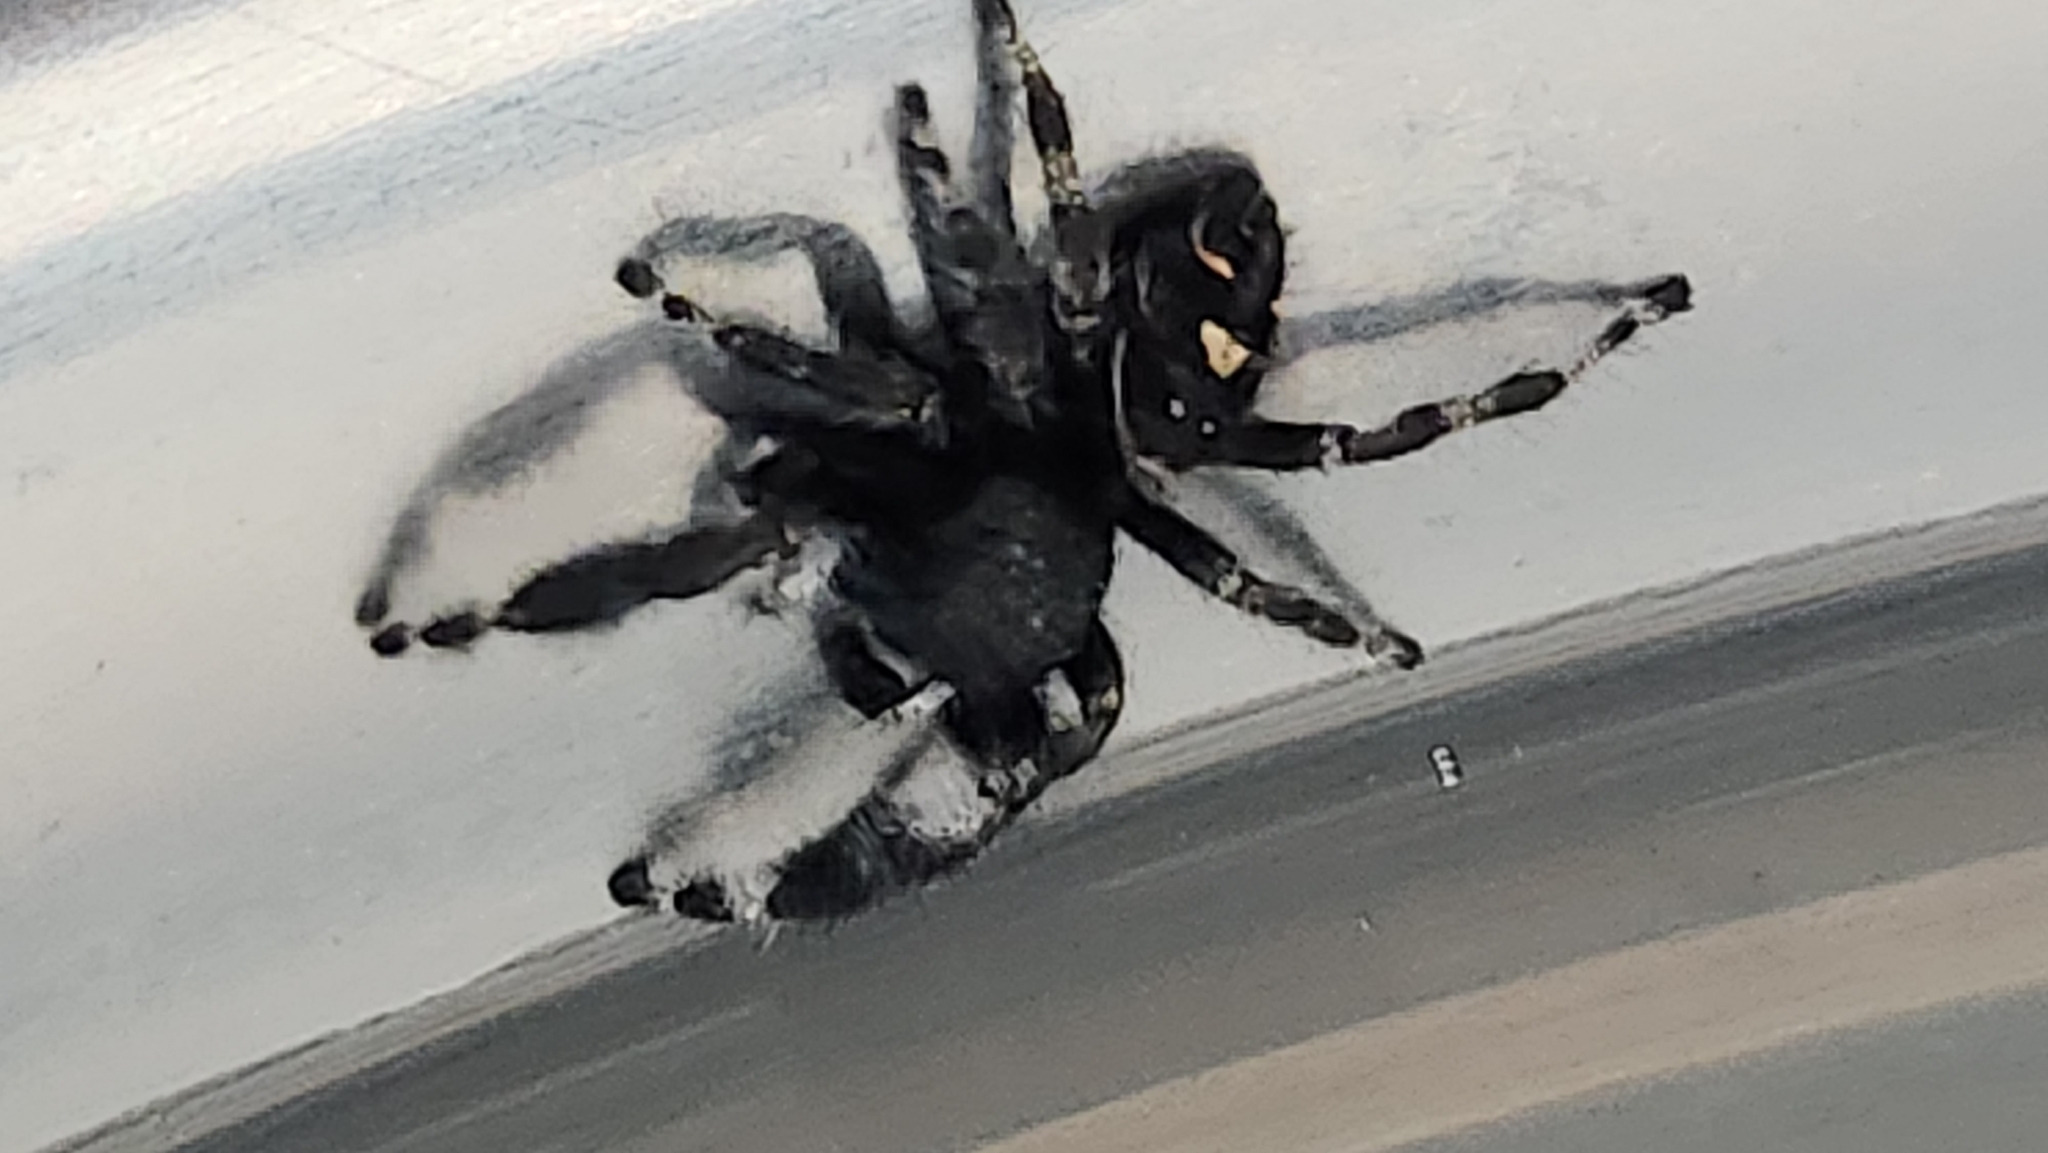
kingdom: Animalia
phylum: Arthropoda
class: Arachnida
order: Araneae
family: Salticidae
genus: Phidippus
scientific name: Phidippus audax
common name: Bold jumper
